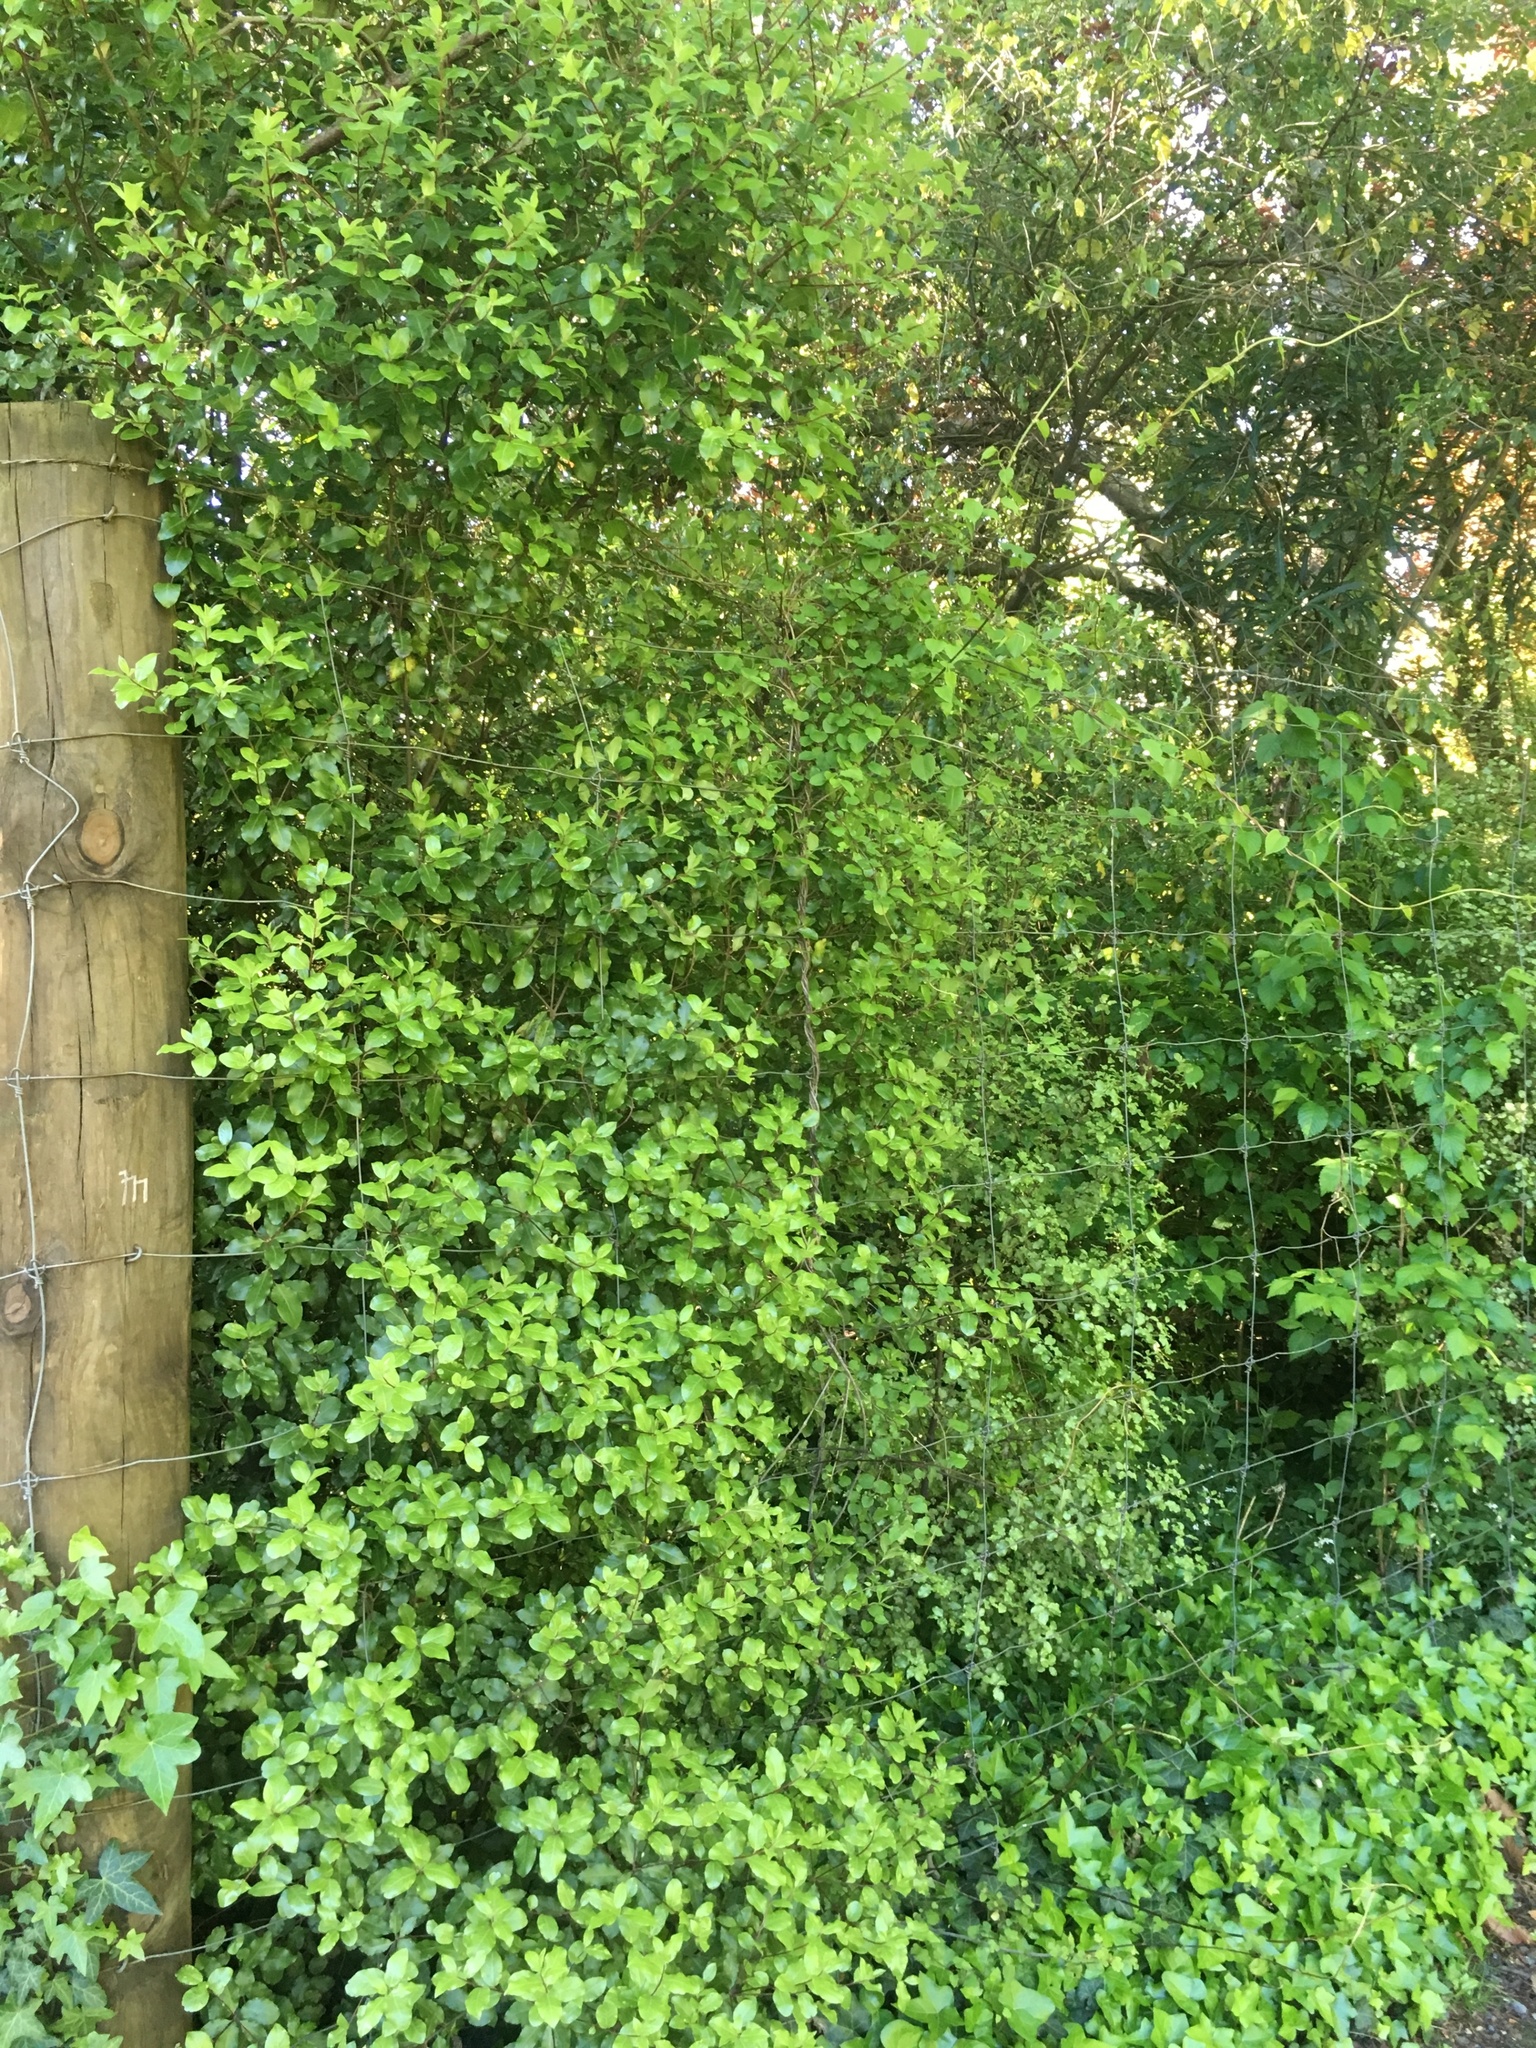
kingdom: Plantae
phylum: Tracheophyta
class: Magnoliopsida
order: Caryophyllales
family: Polygonaceae
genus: Muehlenbeckia
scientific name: Muehlenbeckia australis
